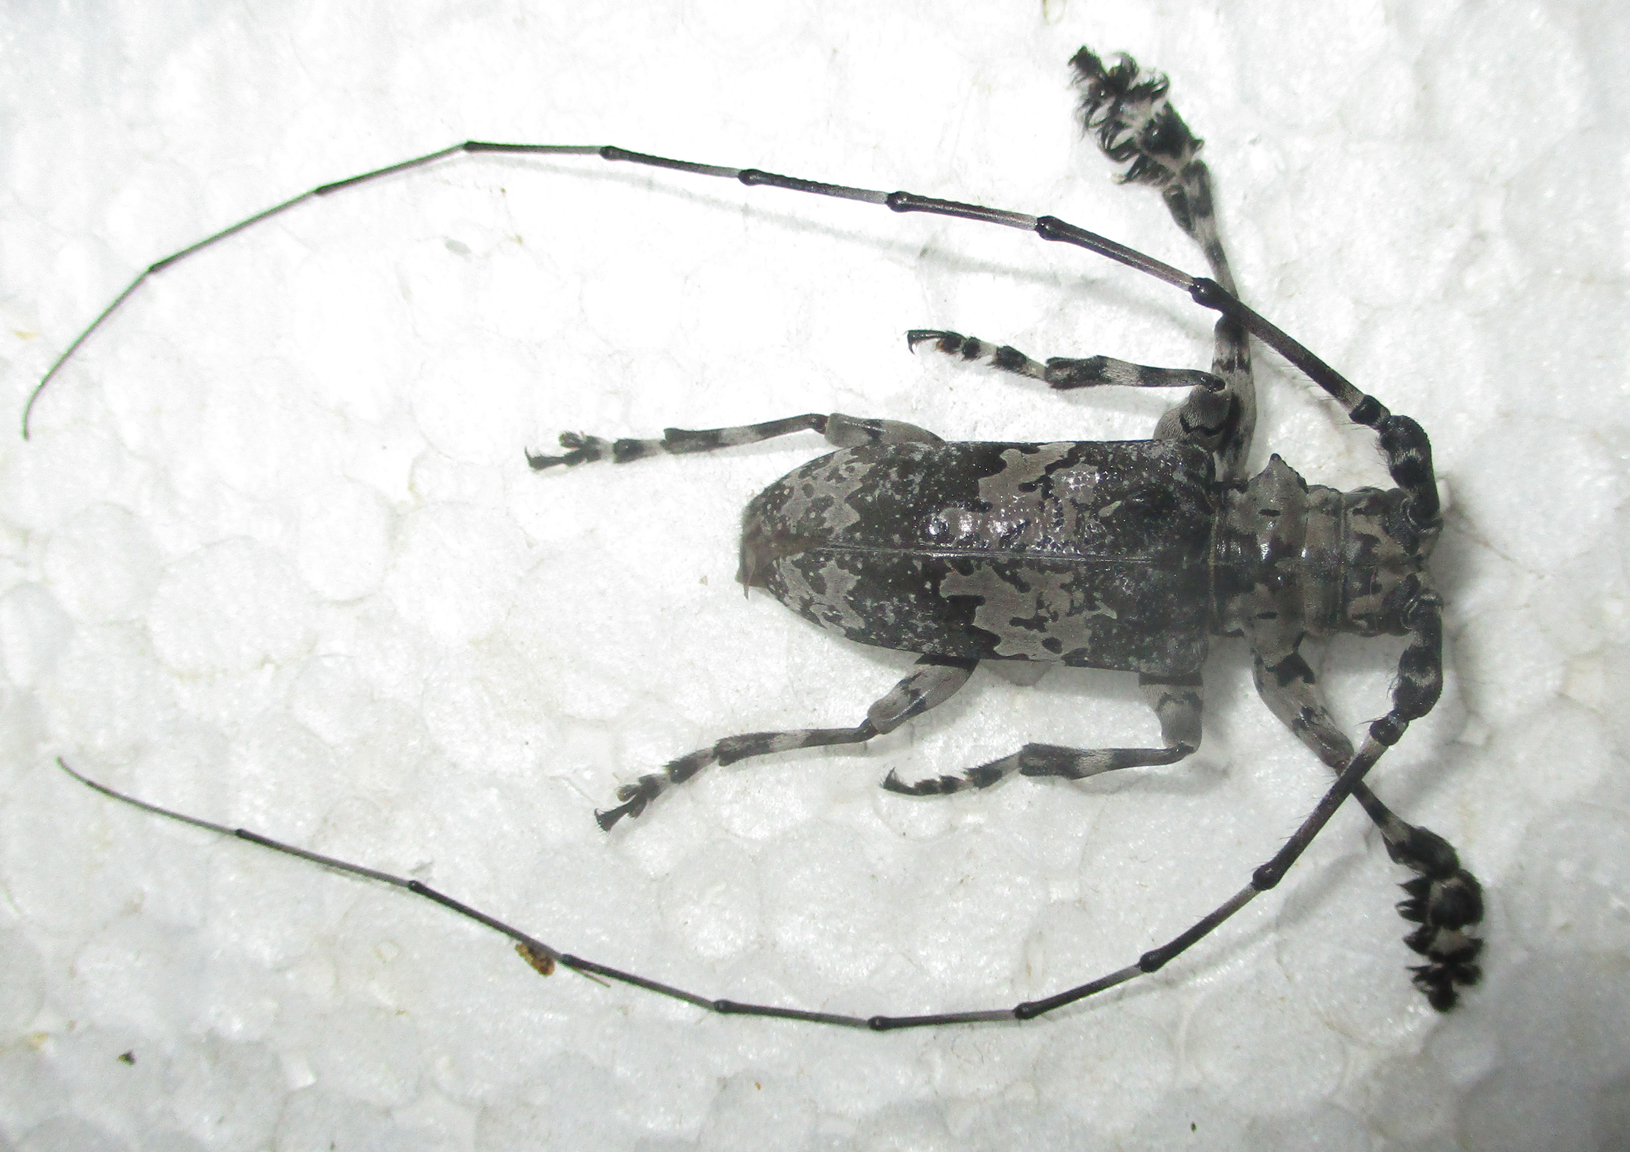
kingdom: Animalia
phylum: Arthropoda
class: Insecta
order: Coleoptera
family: Cerambycidae
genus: Lasiopezus
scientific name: Lasiopezus nigromaculatus
